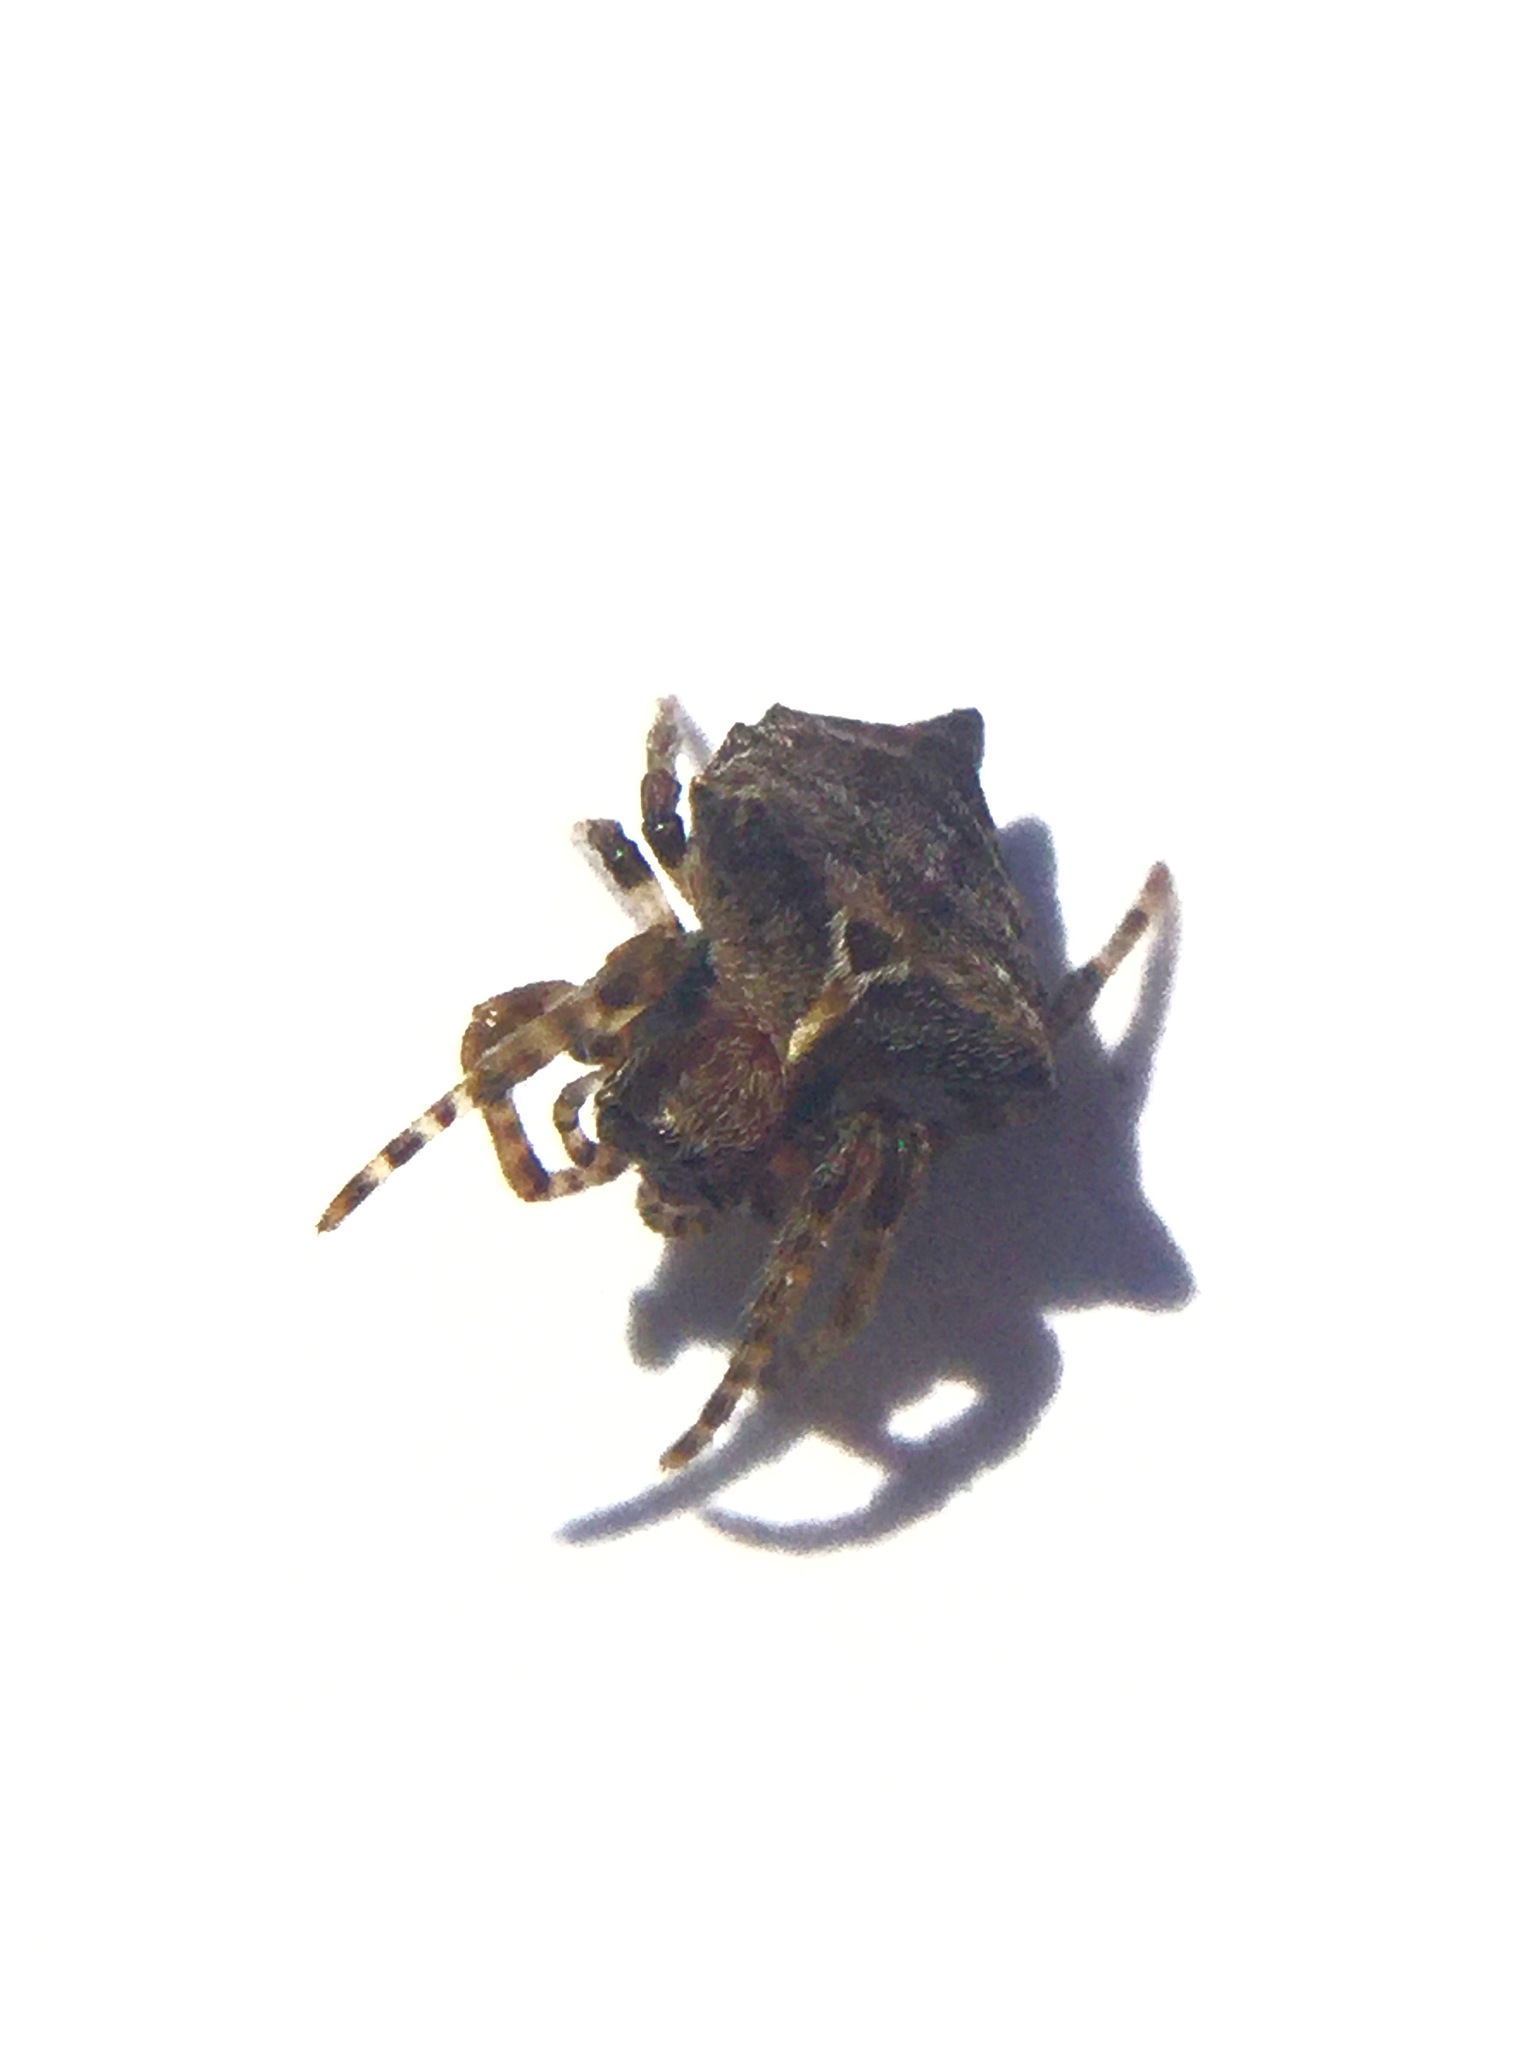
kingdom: Animalia
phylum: Arthropoda
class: Arachnida
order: Araneae
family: Araneidae
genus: Acanthepeira
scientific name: Acanthepeira stellata
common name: Starbellied orbweaver
